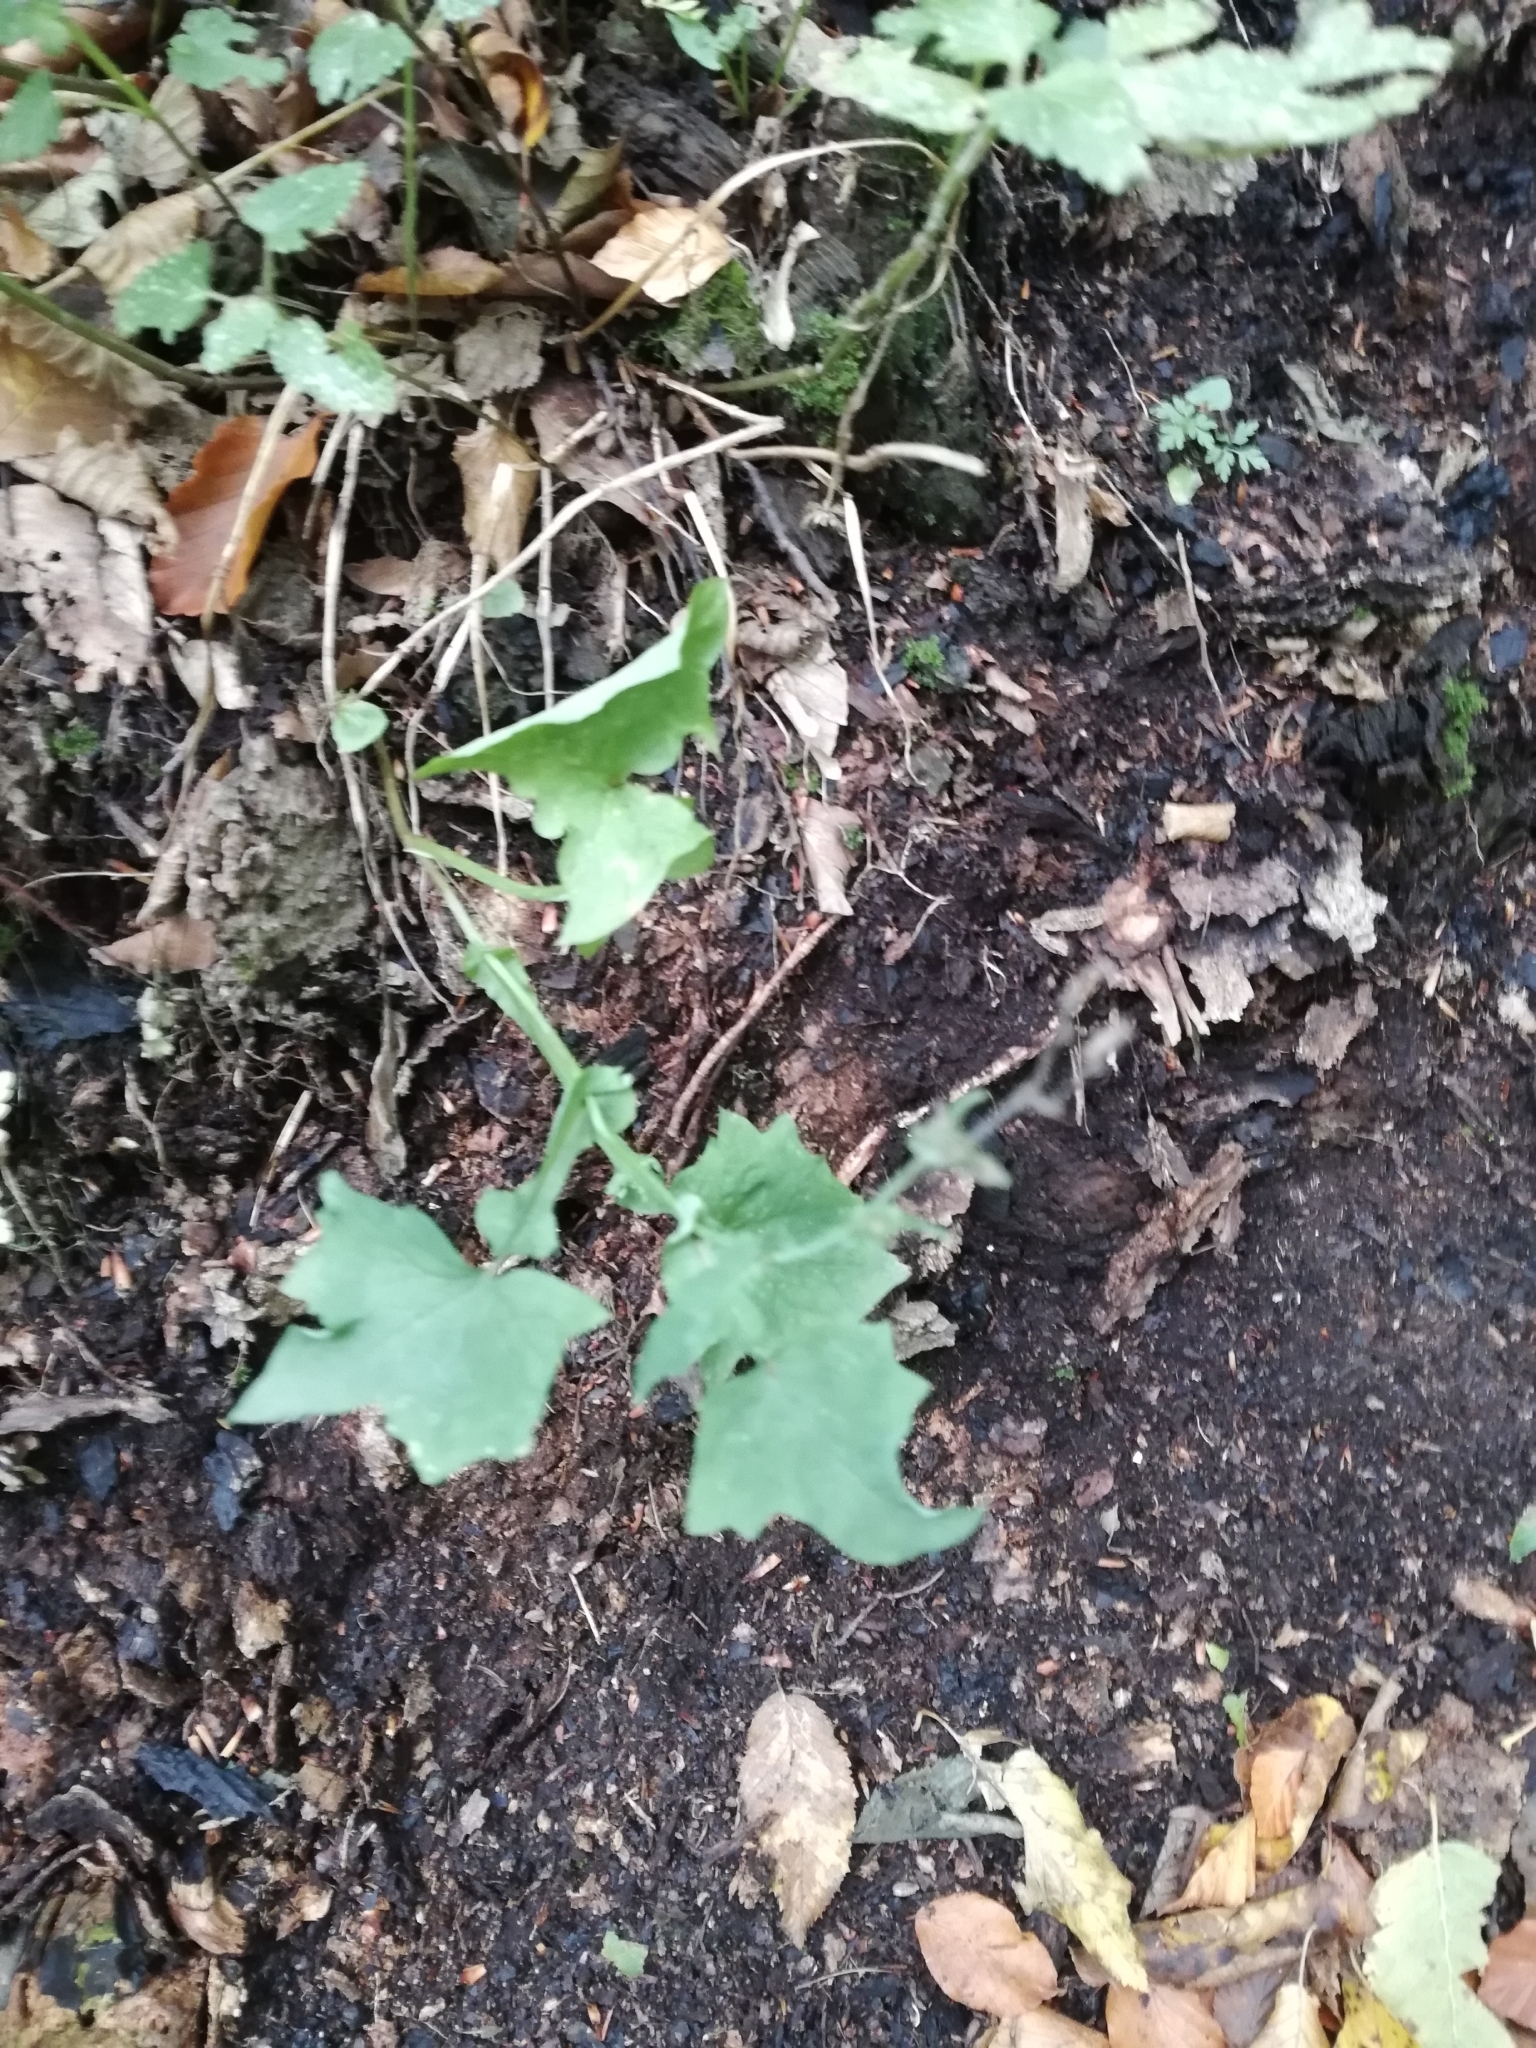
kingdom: Plantae
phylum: Tracheophyta
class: Magnoliopsida
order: Asterales
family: Asteraceae
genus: Mycelis
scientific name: Mycelis muralis
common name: Wall lettuce
